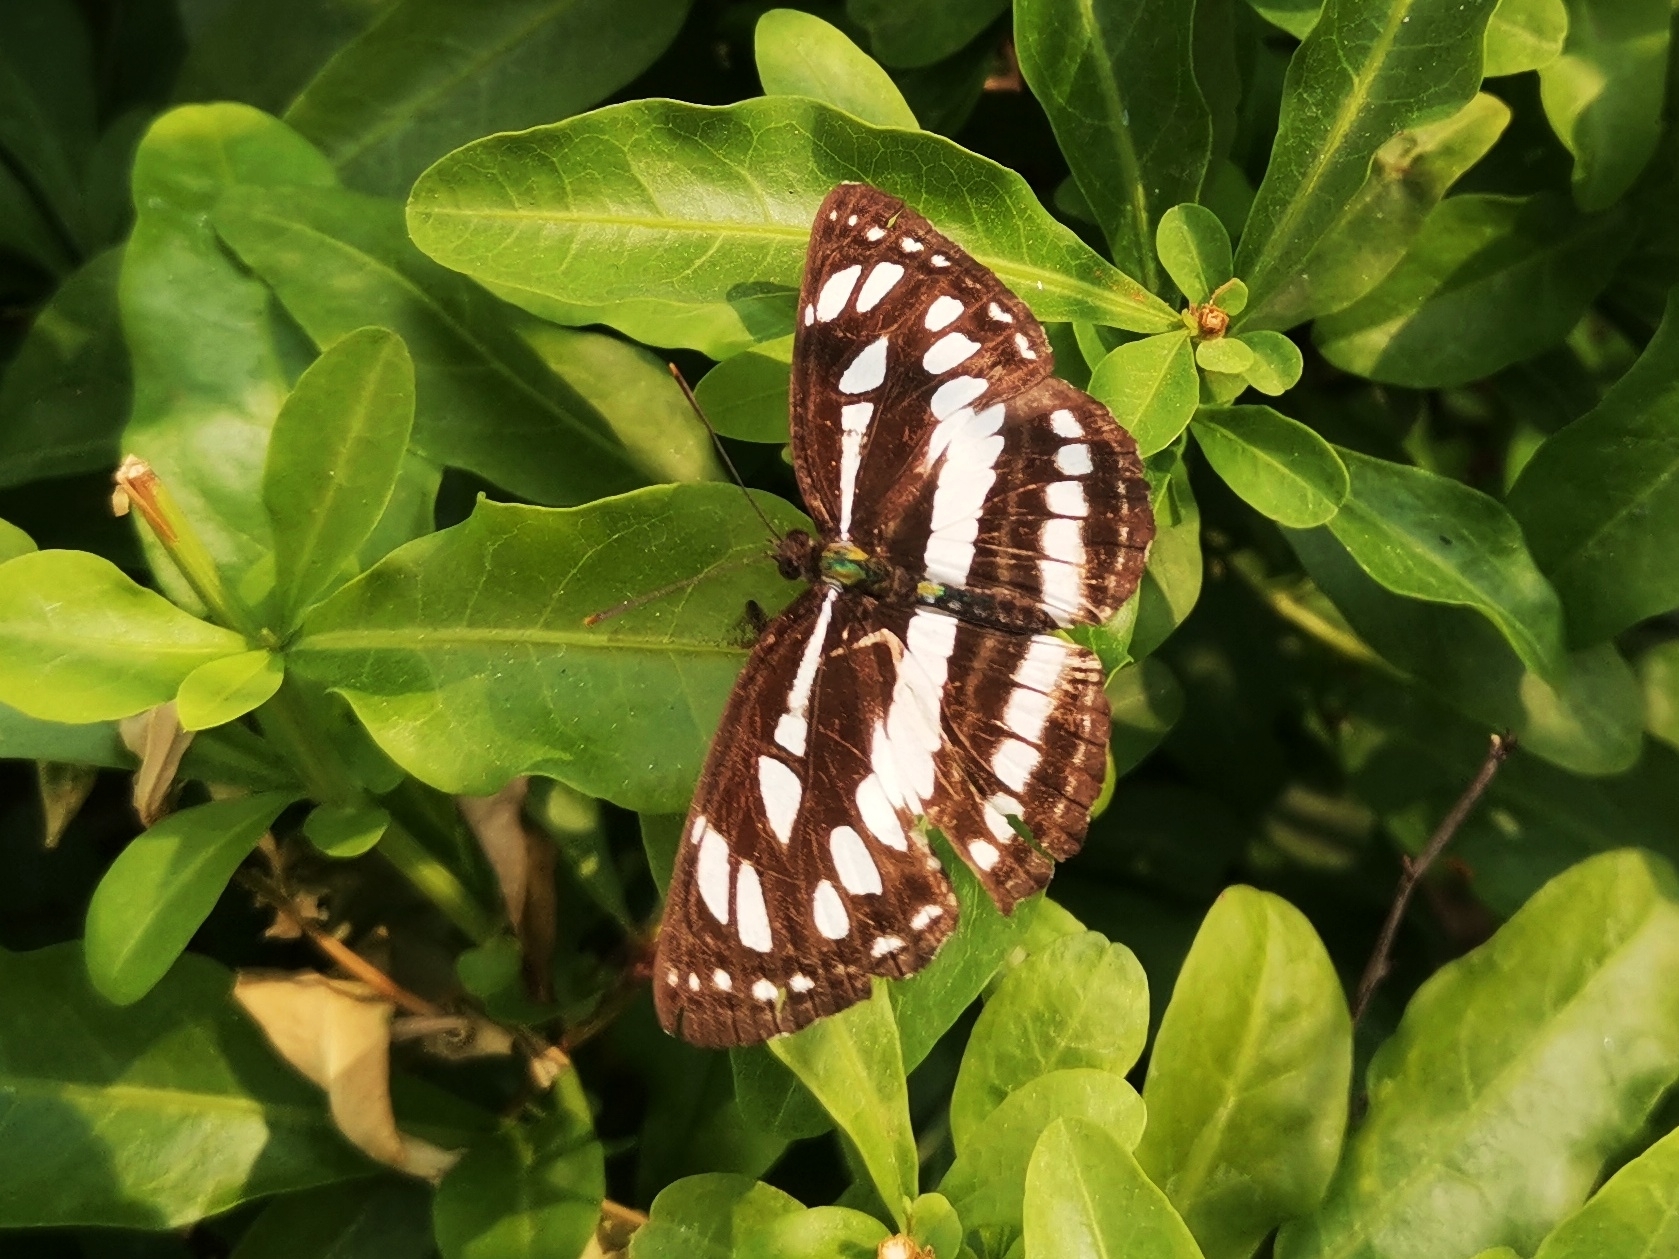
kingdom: Animalia
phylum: Arthropoda
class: Insecta
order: Lepidoptera
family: Nymphalidae
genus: Neptis
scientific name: Neptis hylas
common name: Common sailer
